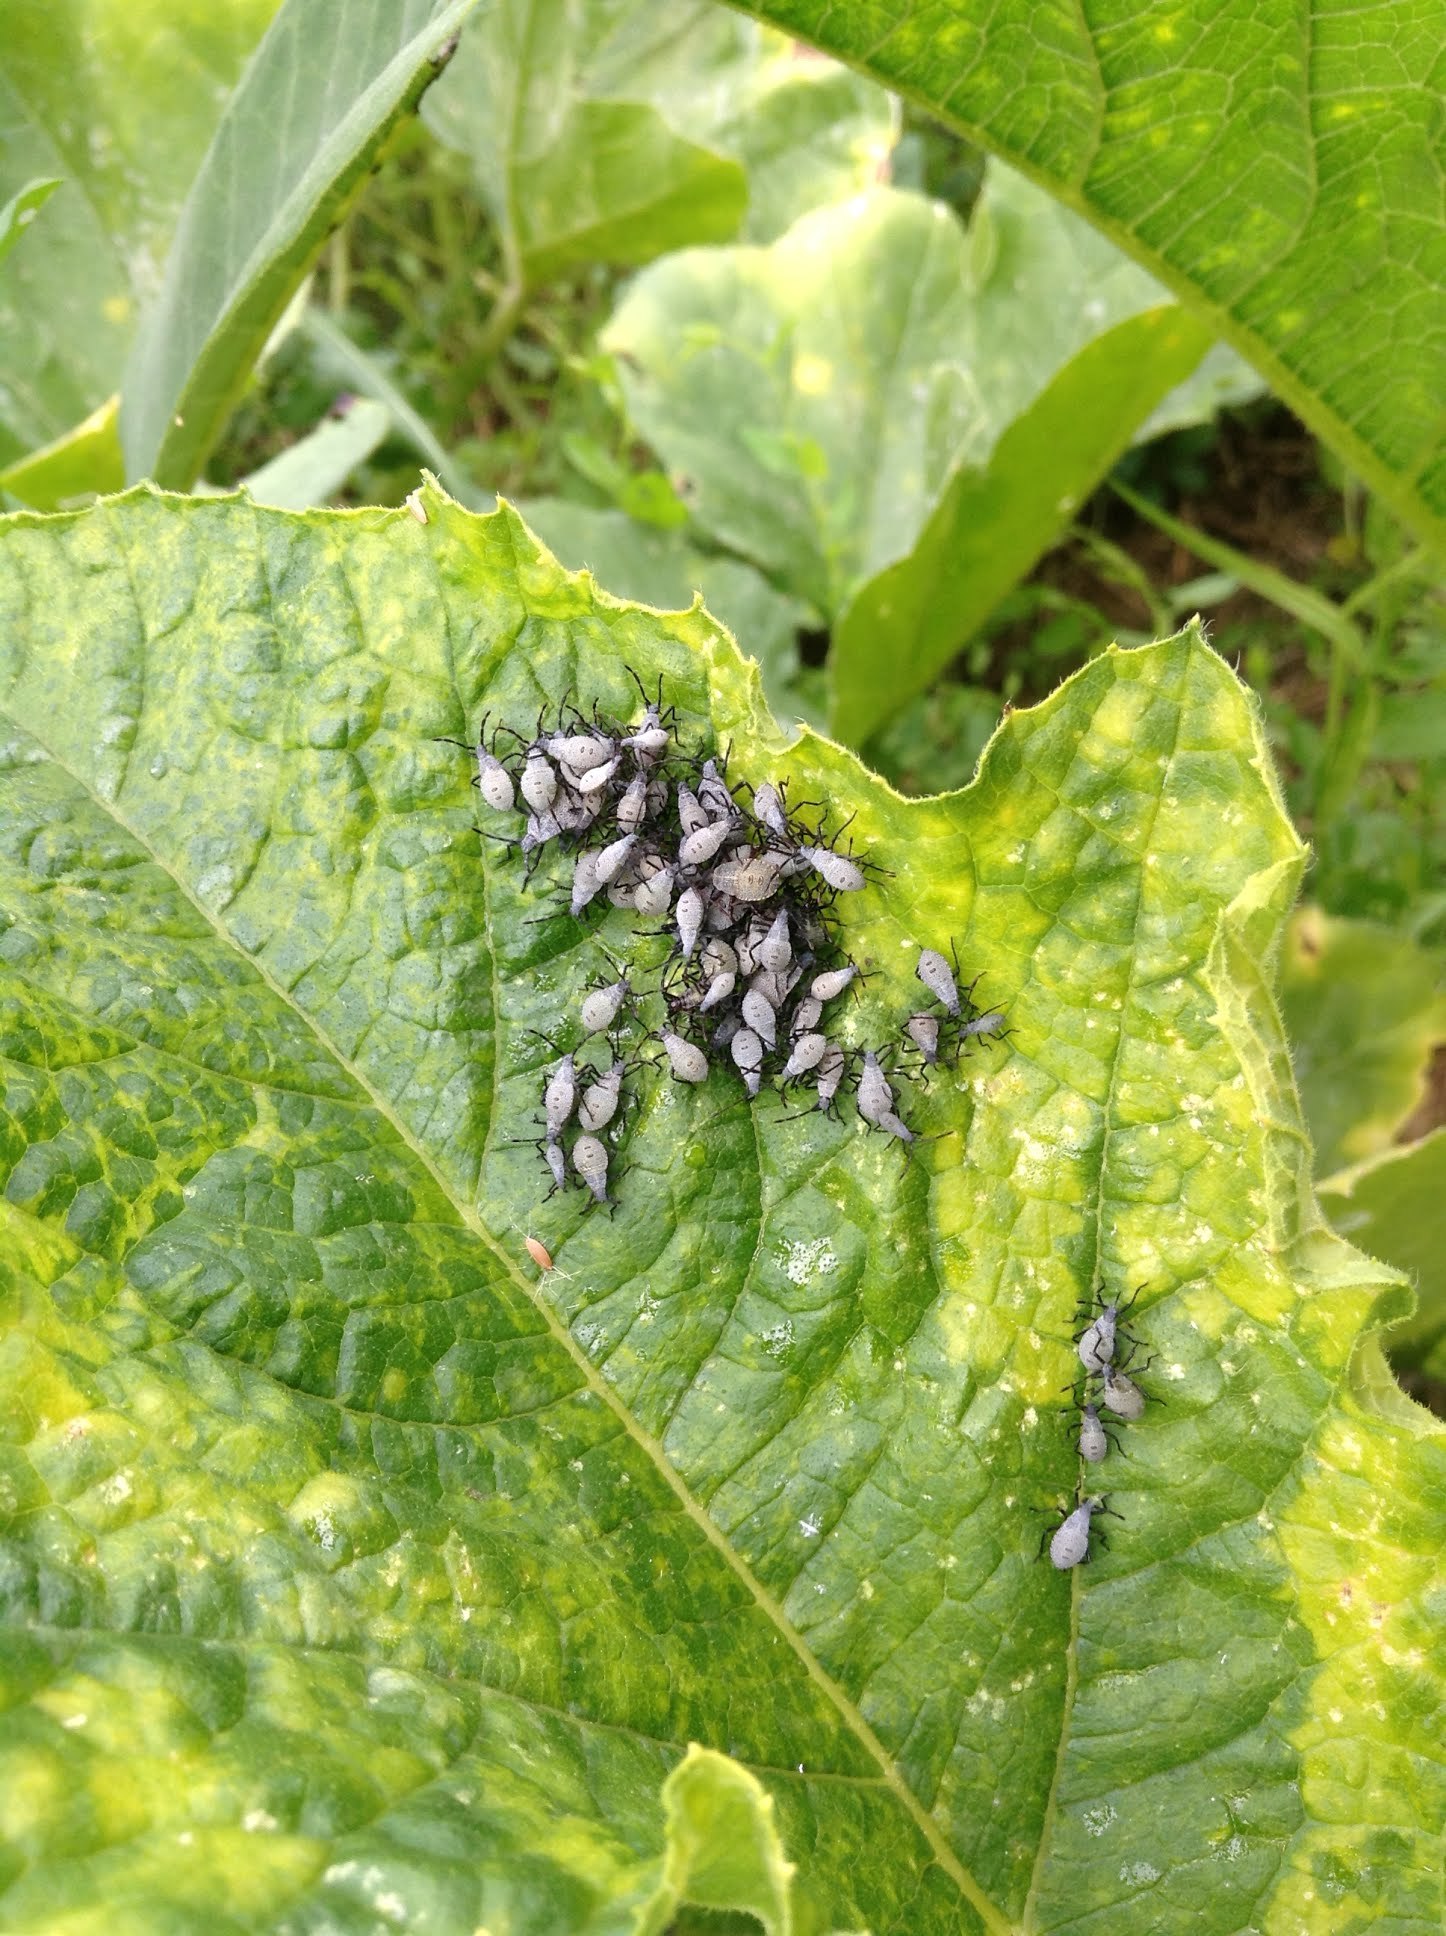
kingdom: Animalia
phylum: Arthropoda
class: Insecta
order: Hemiptera
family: Coreidae
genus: Anasa
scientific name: Anasa tristis
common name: Squash bug
